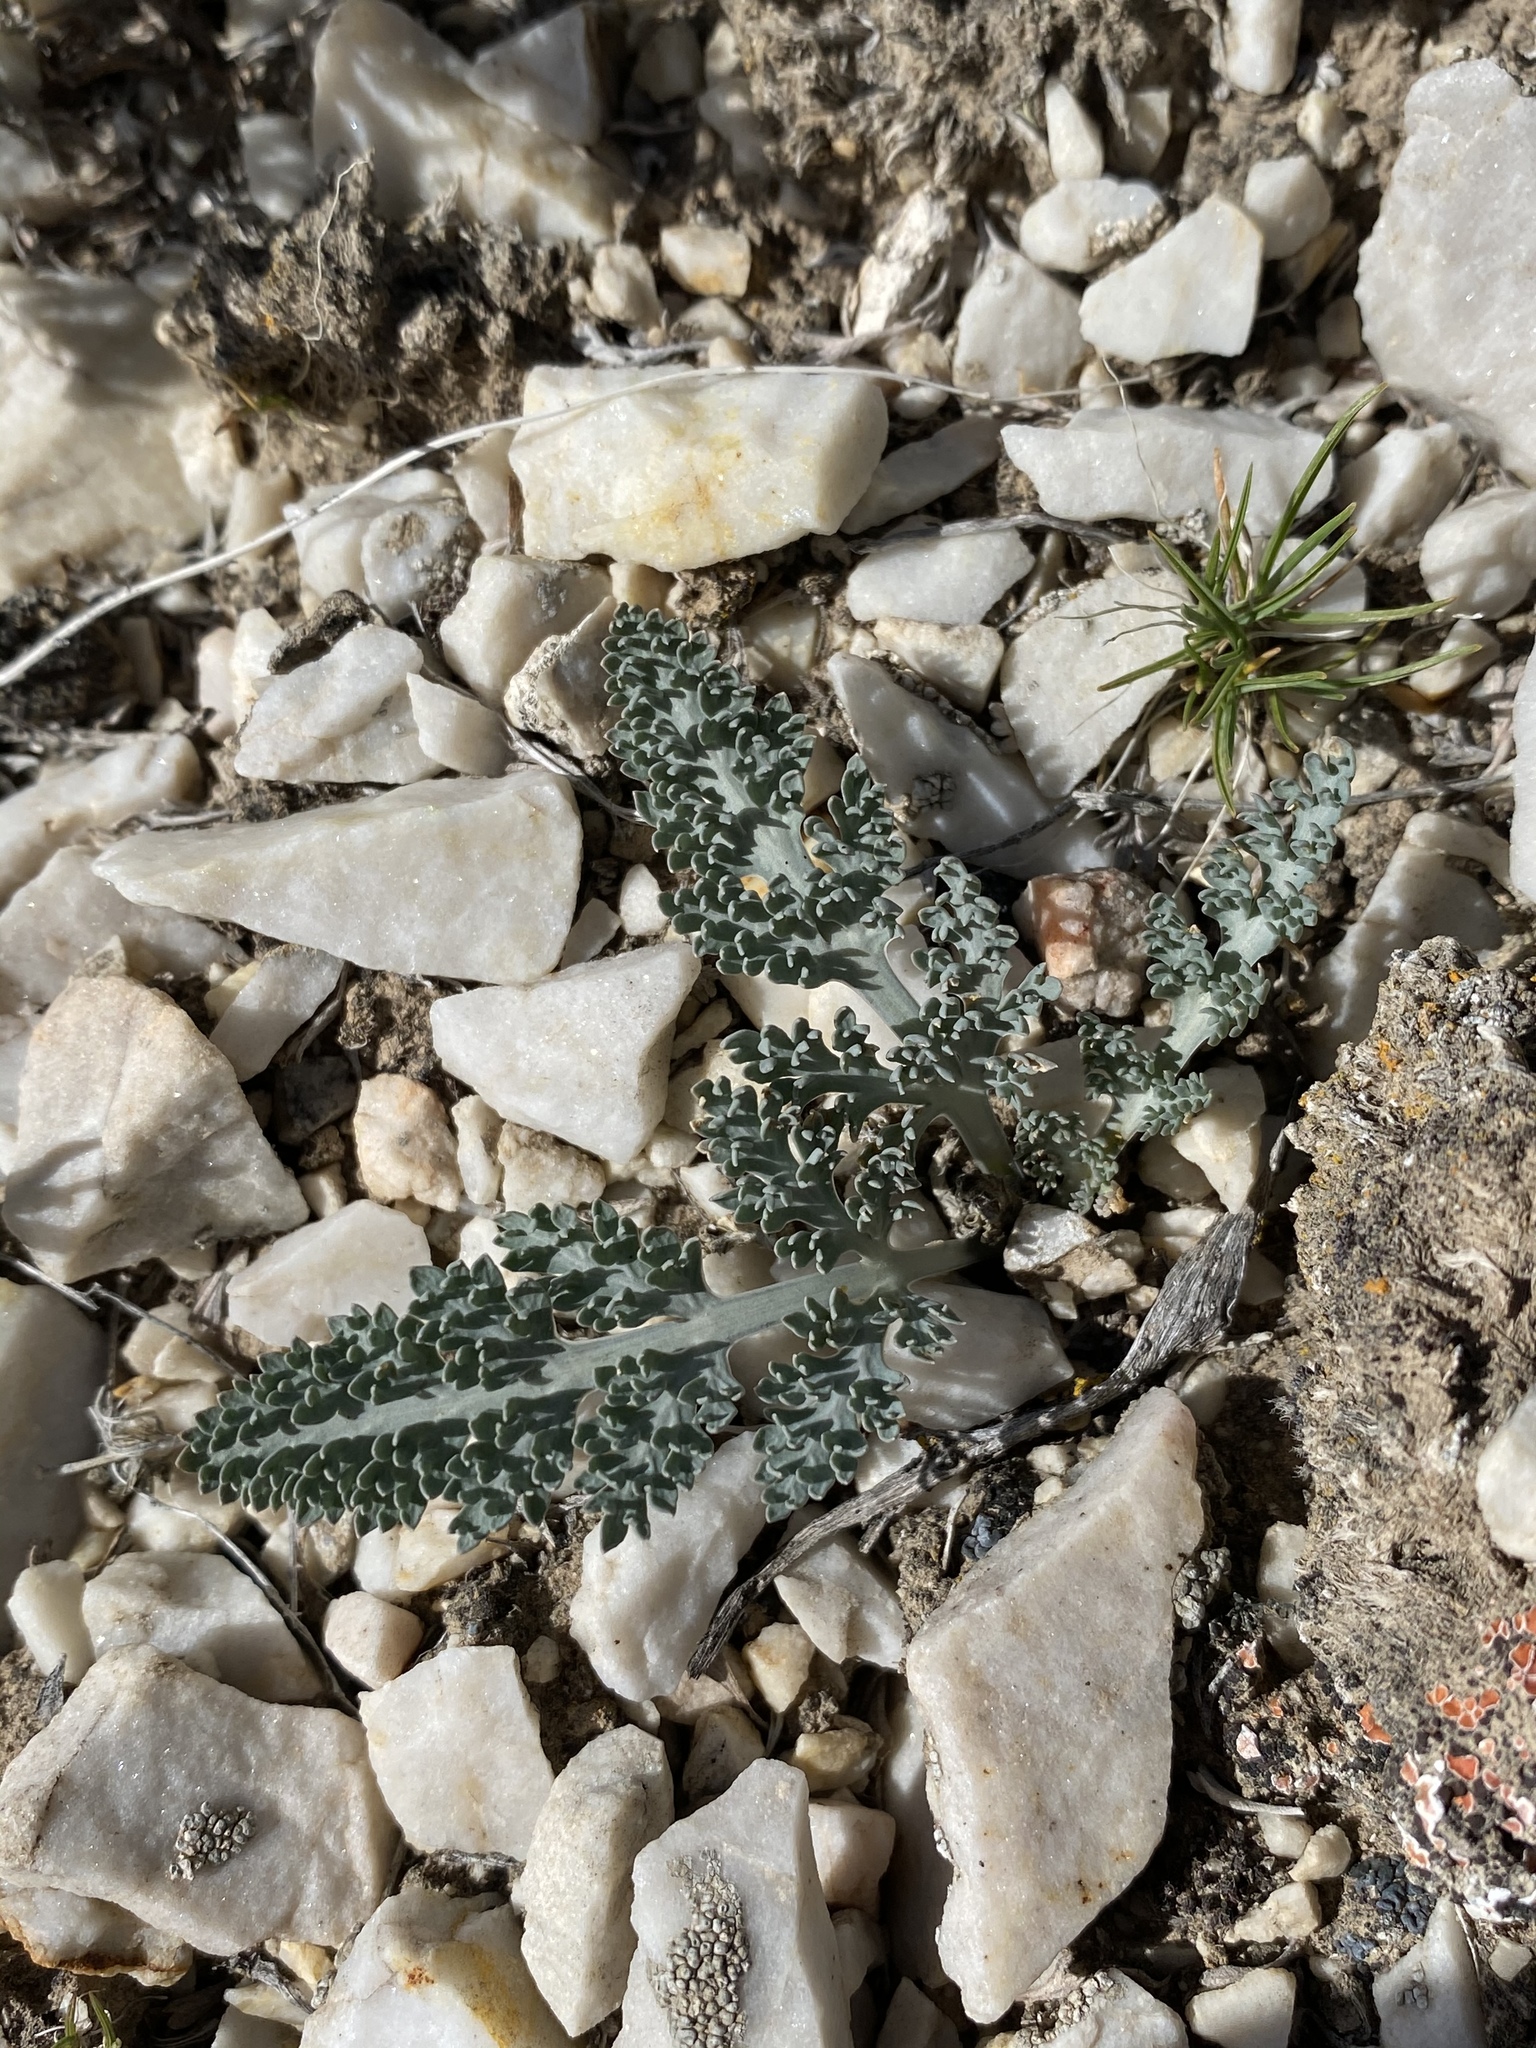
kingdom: Plantae
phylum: Tracheophyta
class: Magnoliopsida
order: Apiales
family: Apiaceae
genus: Vesper
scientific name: Vesper purpurascens
